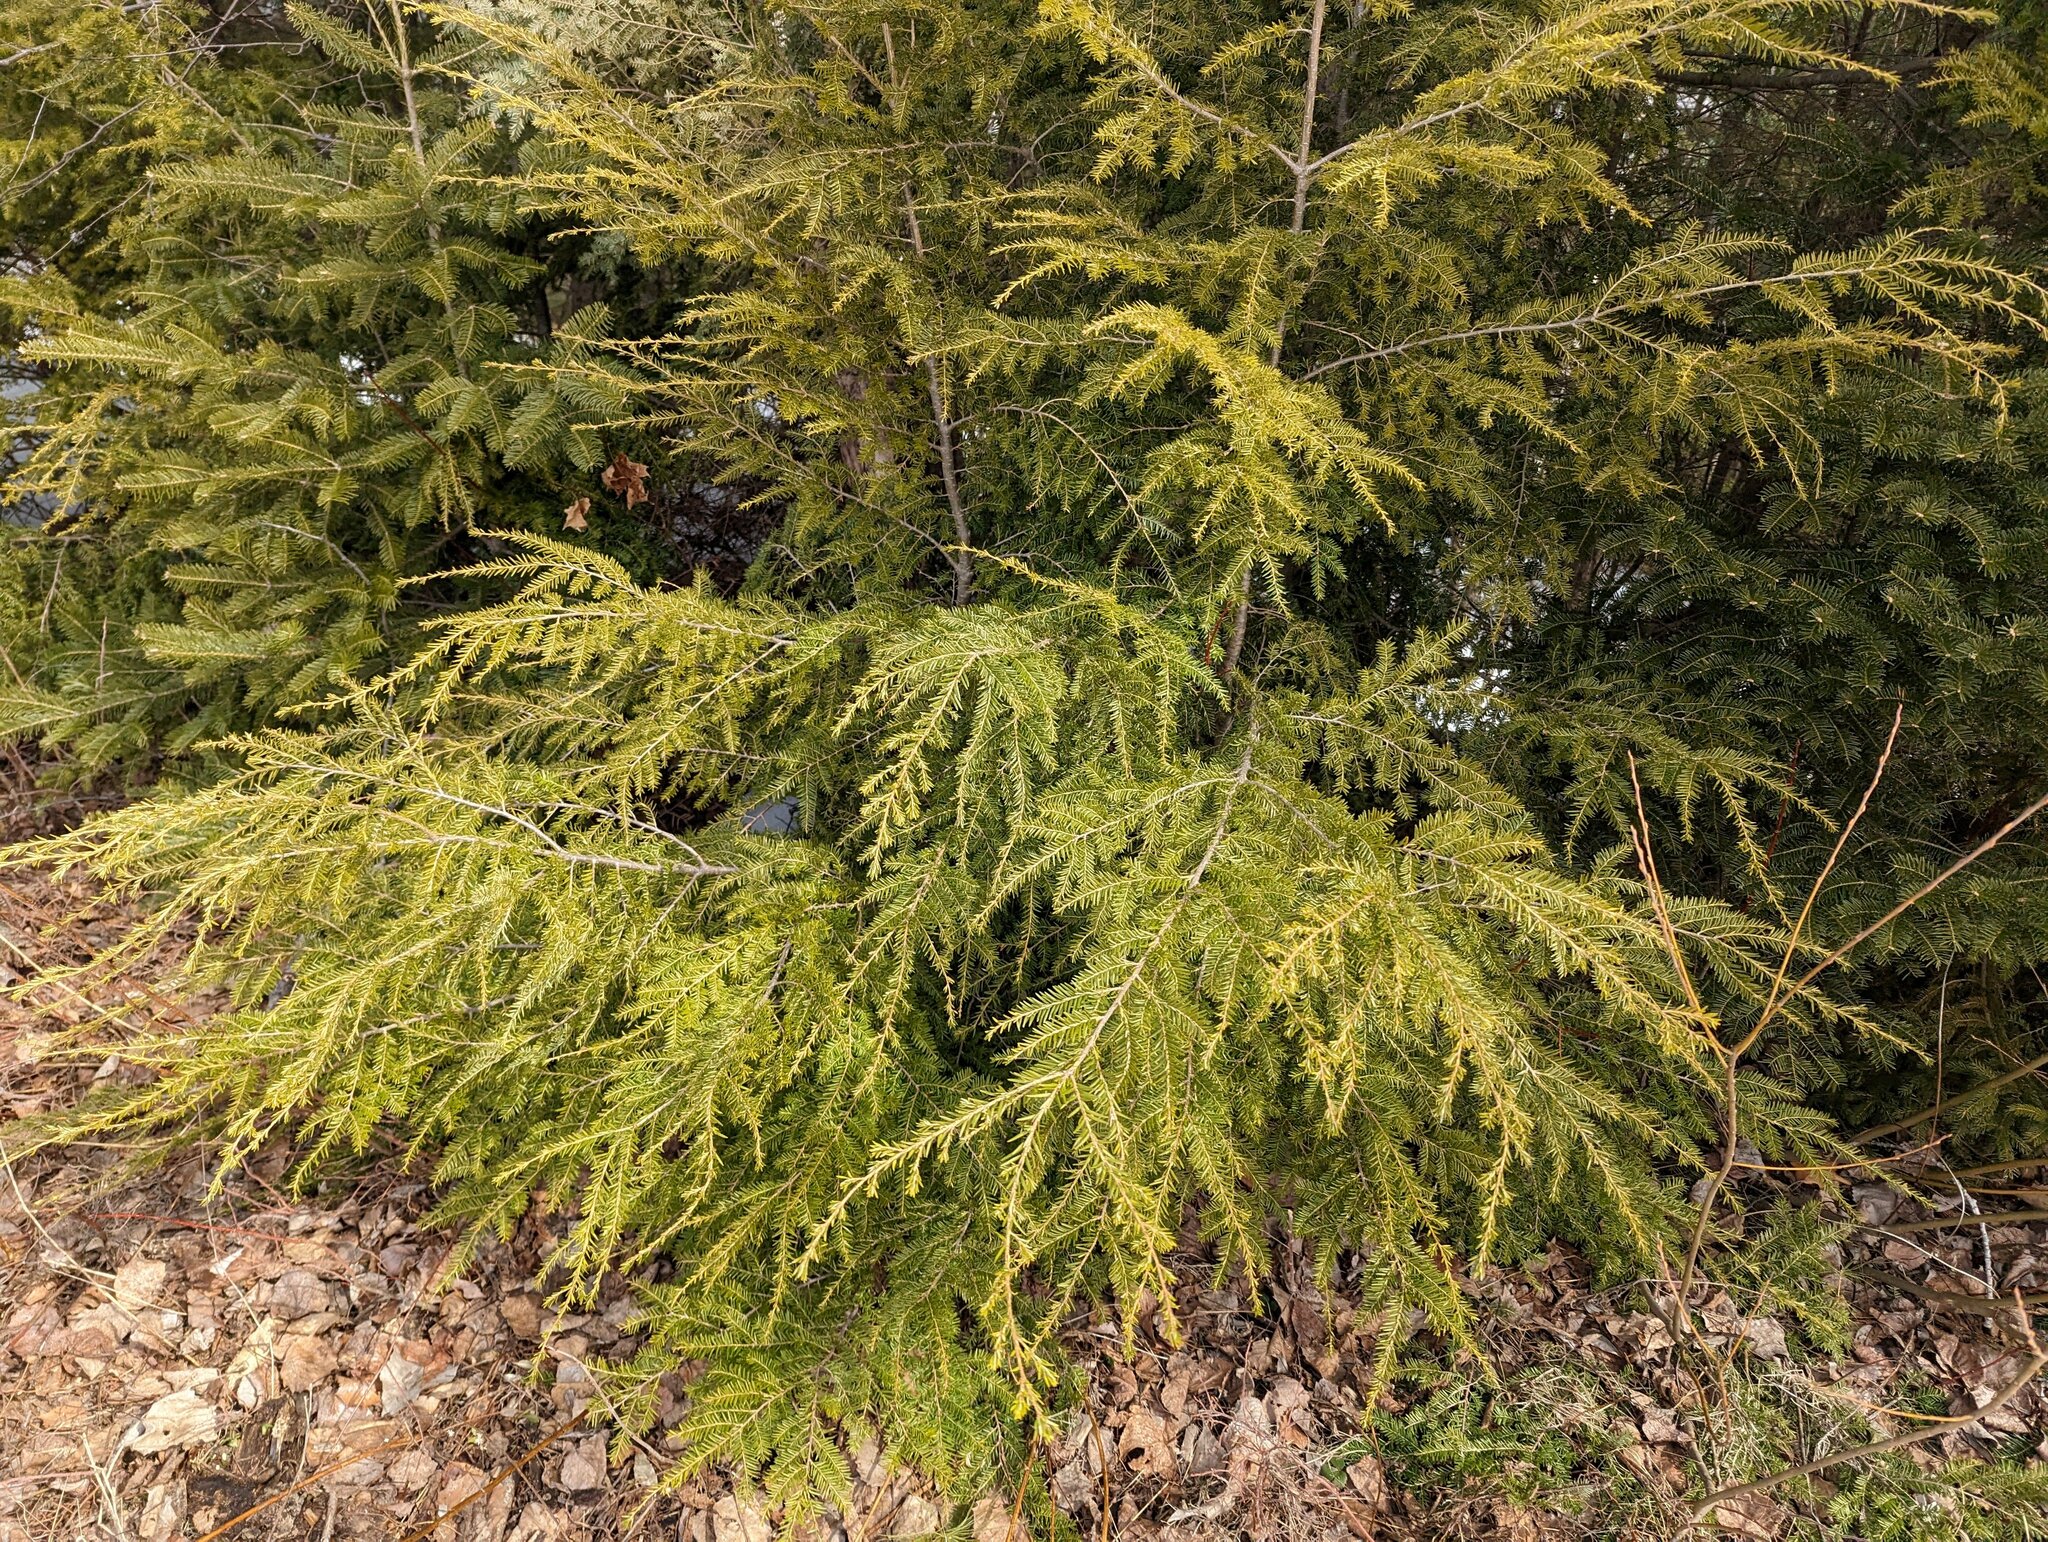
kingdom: Plantae
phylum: Tracheophyta
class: Pinopsida
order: Pinales
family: Pinaceae
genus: Tsuga
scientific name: Tsuga canadensis
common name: Eastern hemlock
